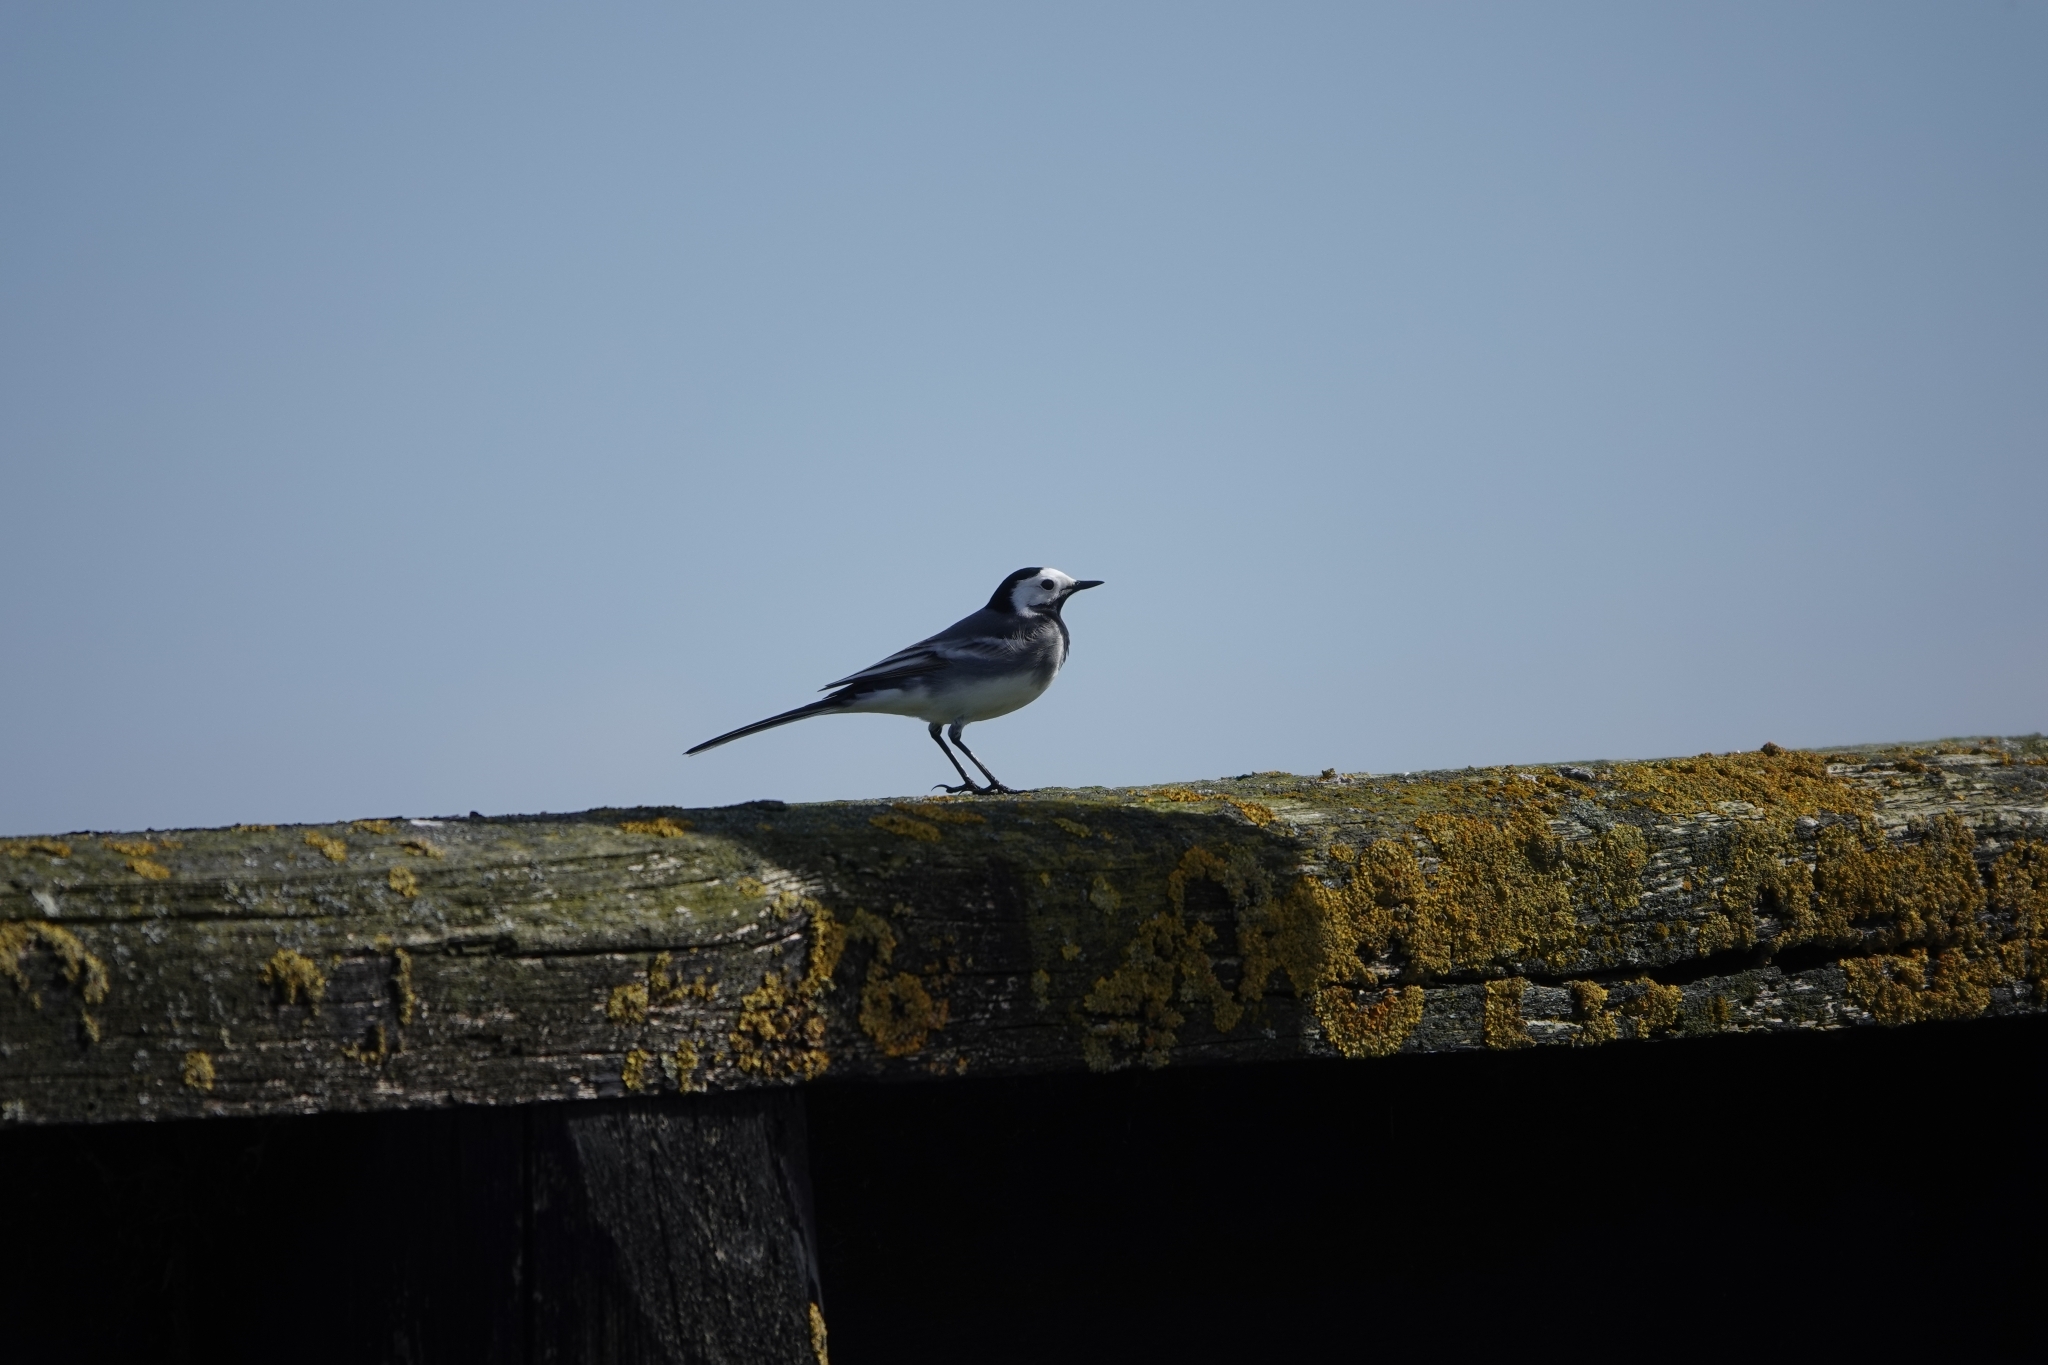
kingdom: Animalia
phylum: Chordata
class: Aves
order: Passeriformes
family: Motacillidae
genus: Motacilla
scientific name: Motacilla alba
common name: White wagtail
